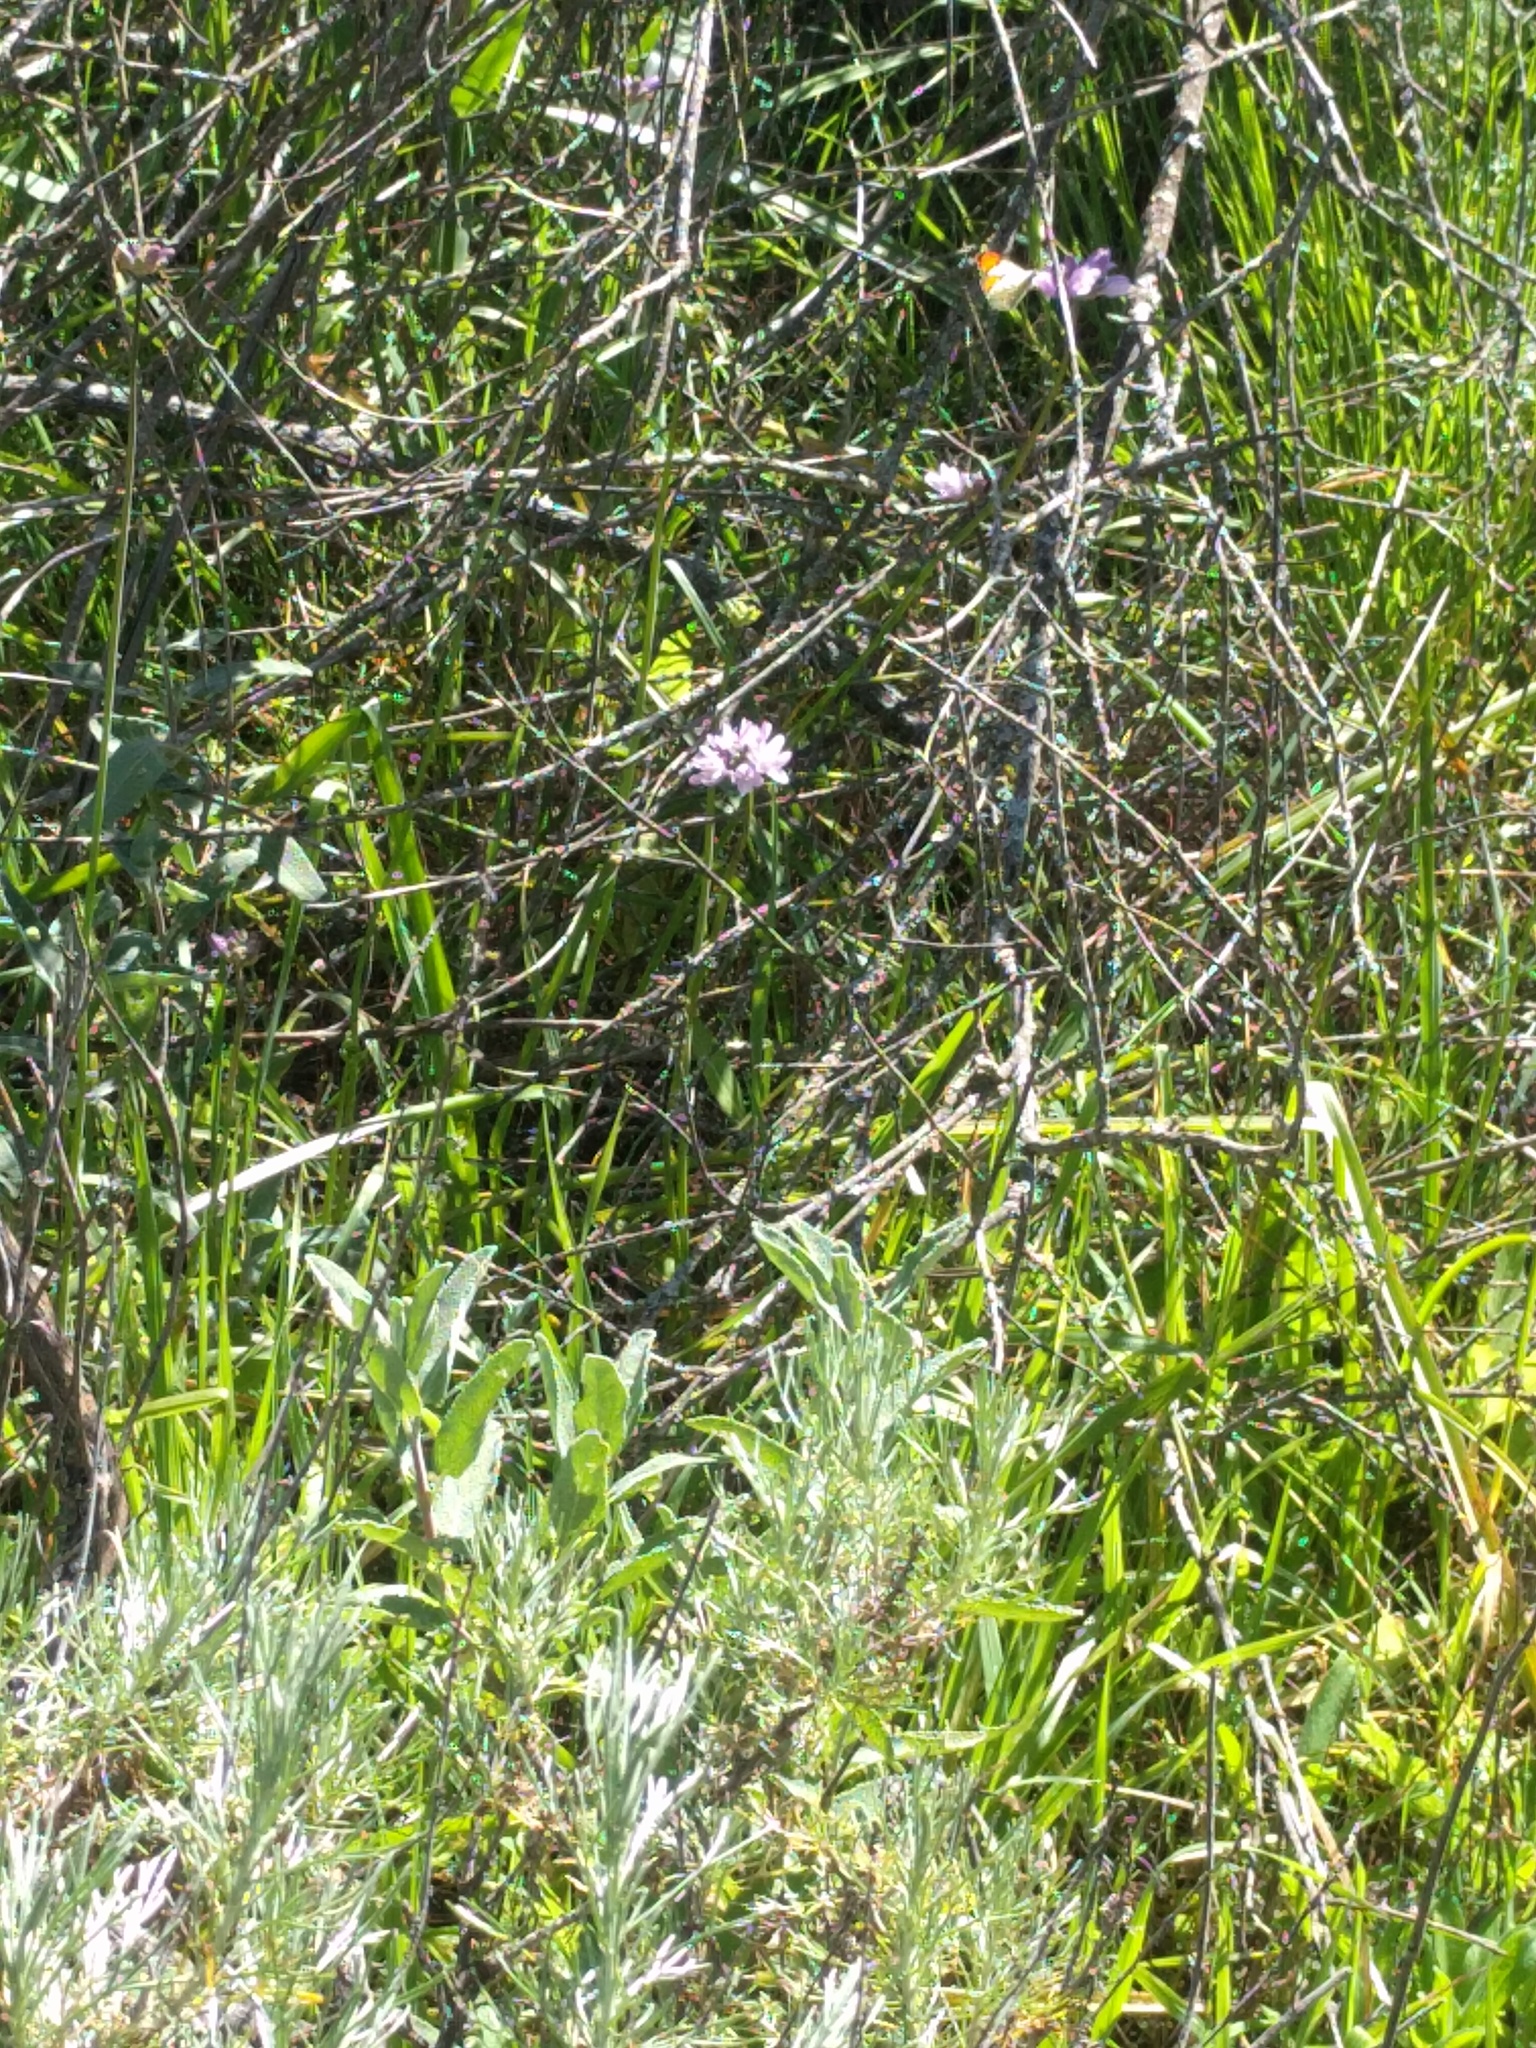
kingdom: Animalia
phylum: Arthropoda
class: Insecta
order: Lepidoptera
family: Pieridae
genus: Anthocharis
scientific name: Anthocharis sara
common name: Sara's orangetip
